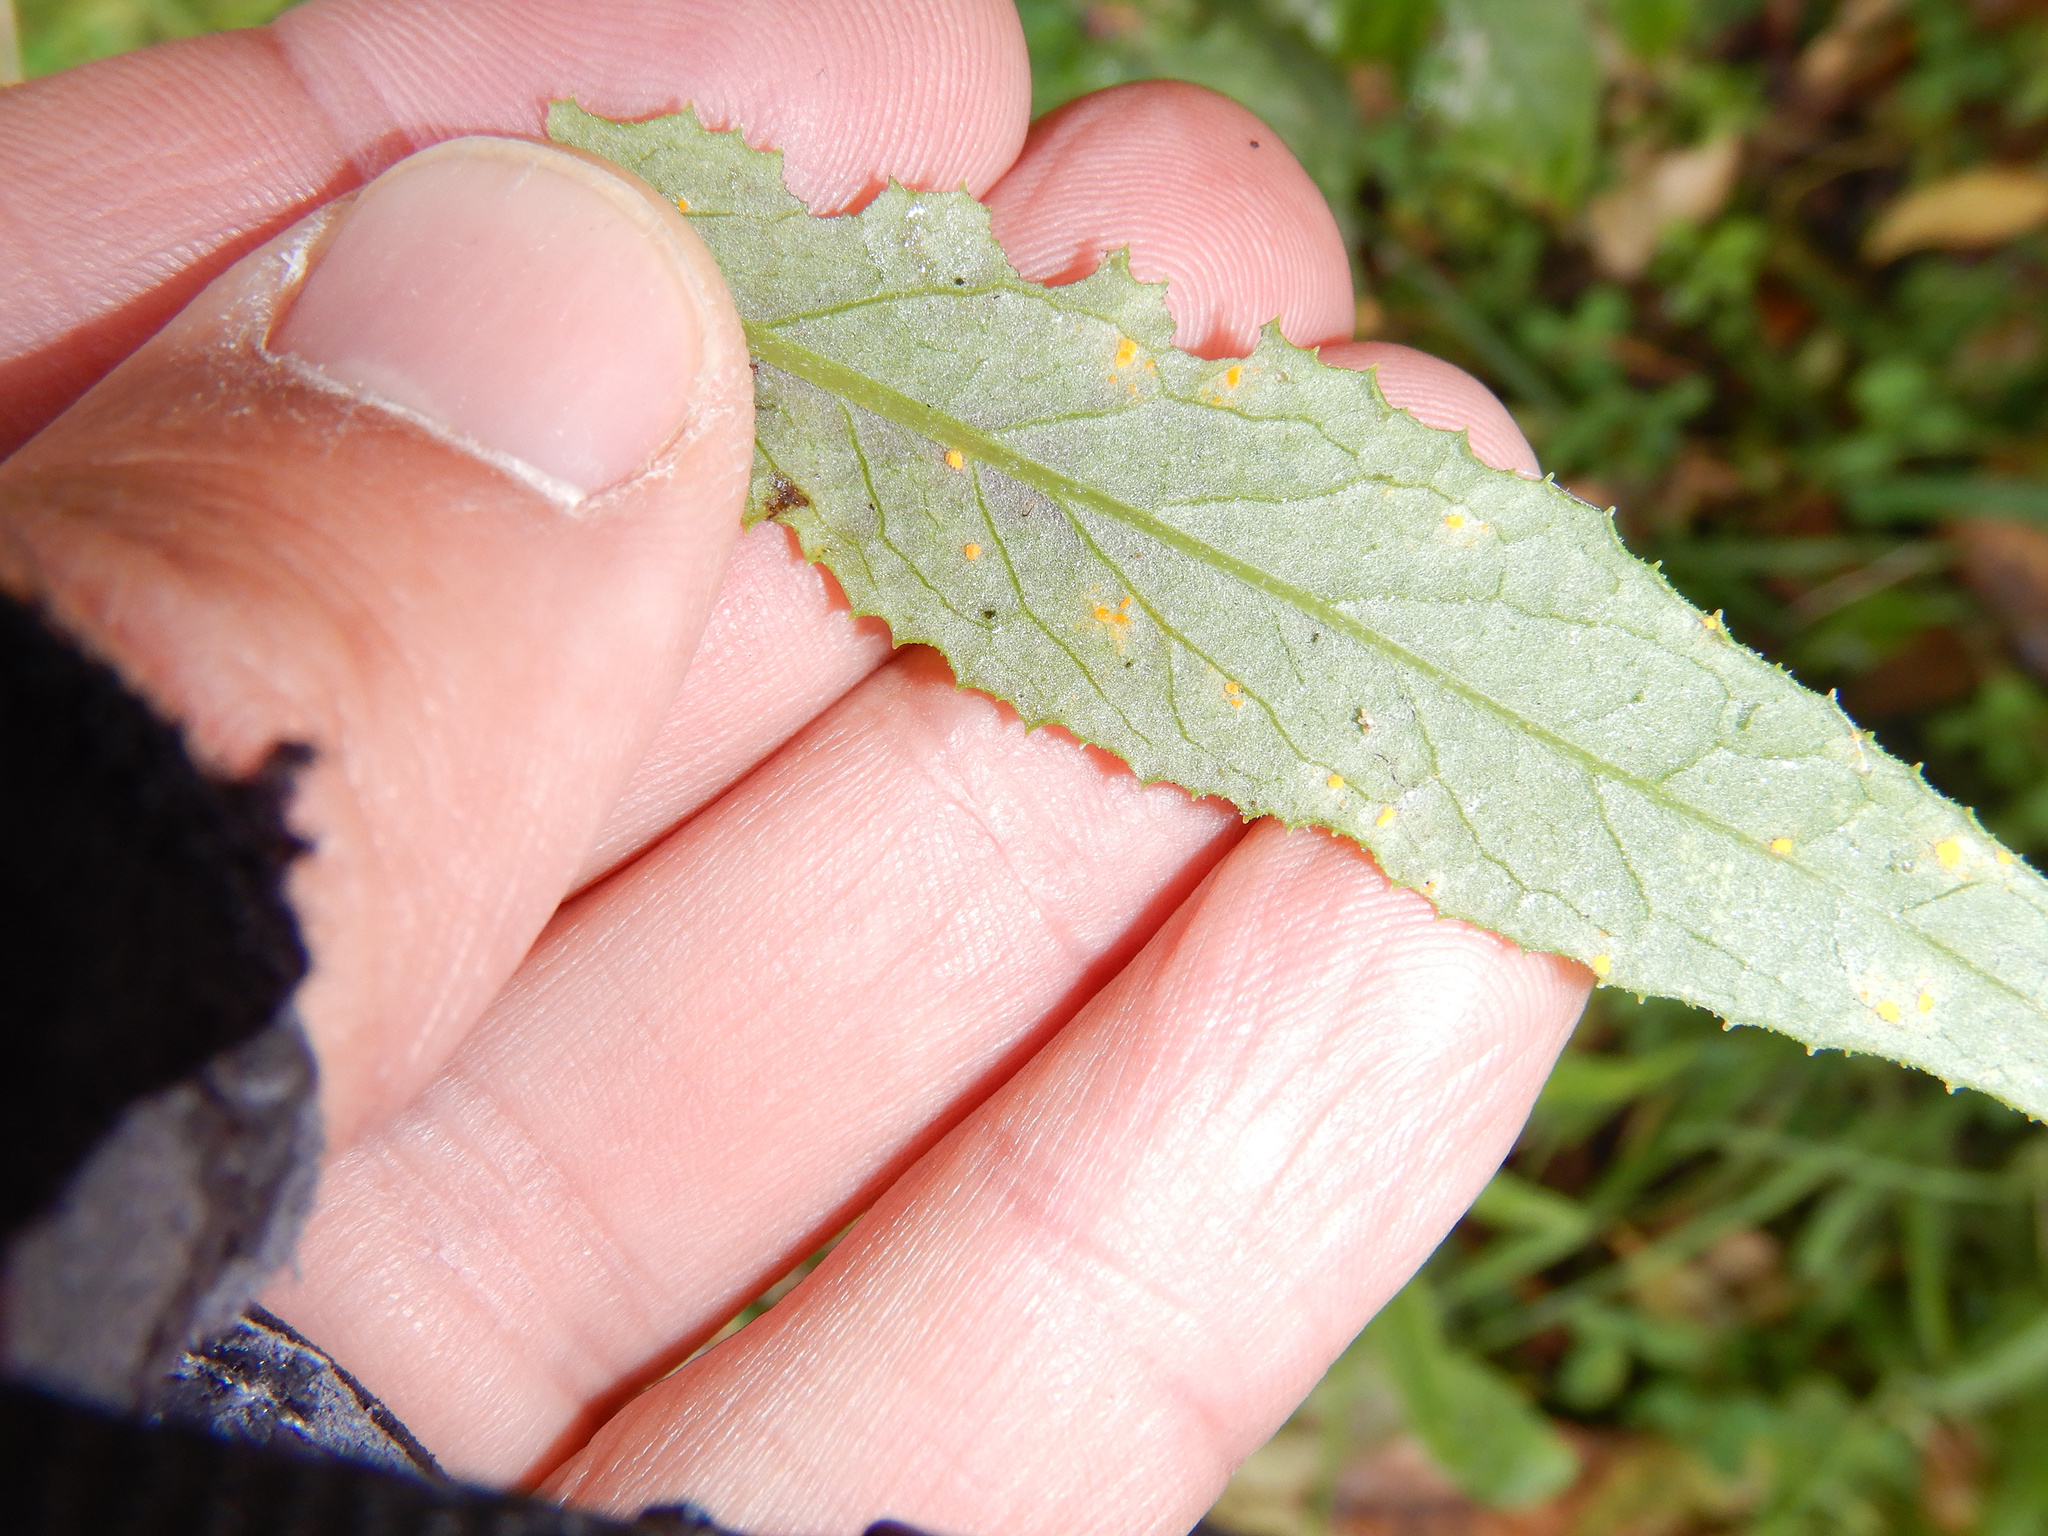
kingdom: Fungi
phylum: Basidiomycota
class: Pucciniomycetes
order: Pucciniales
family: Coleosporiaceae
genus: Coleosporium
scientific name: Coleosporium tussilaginis
